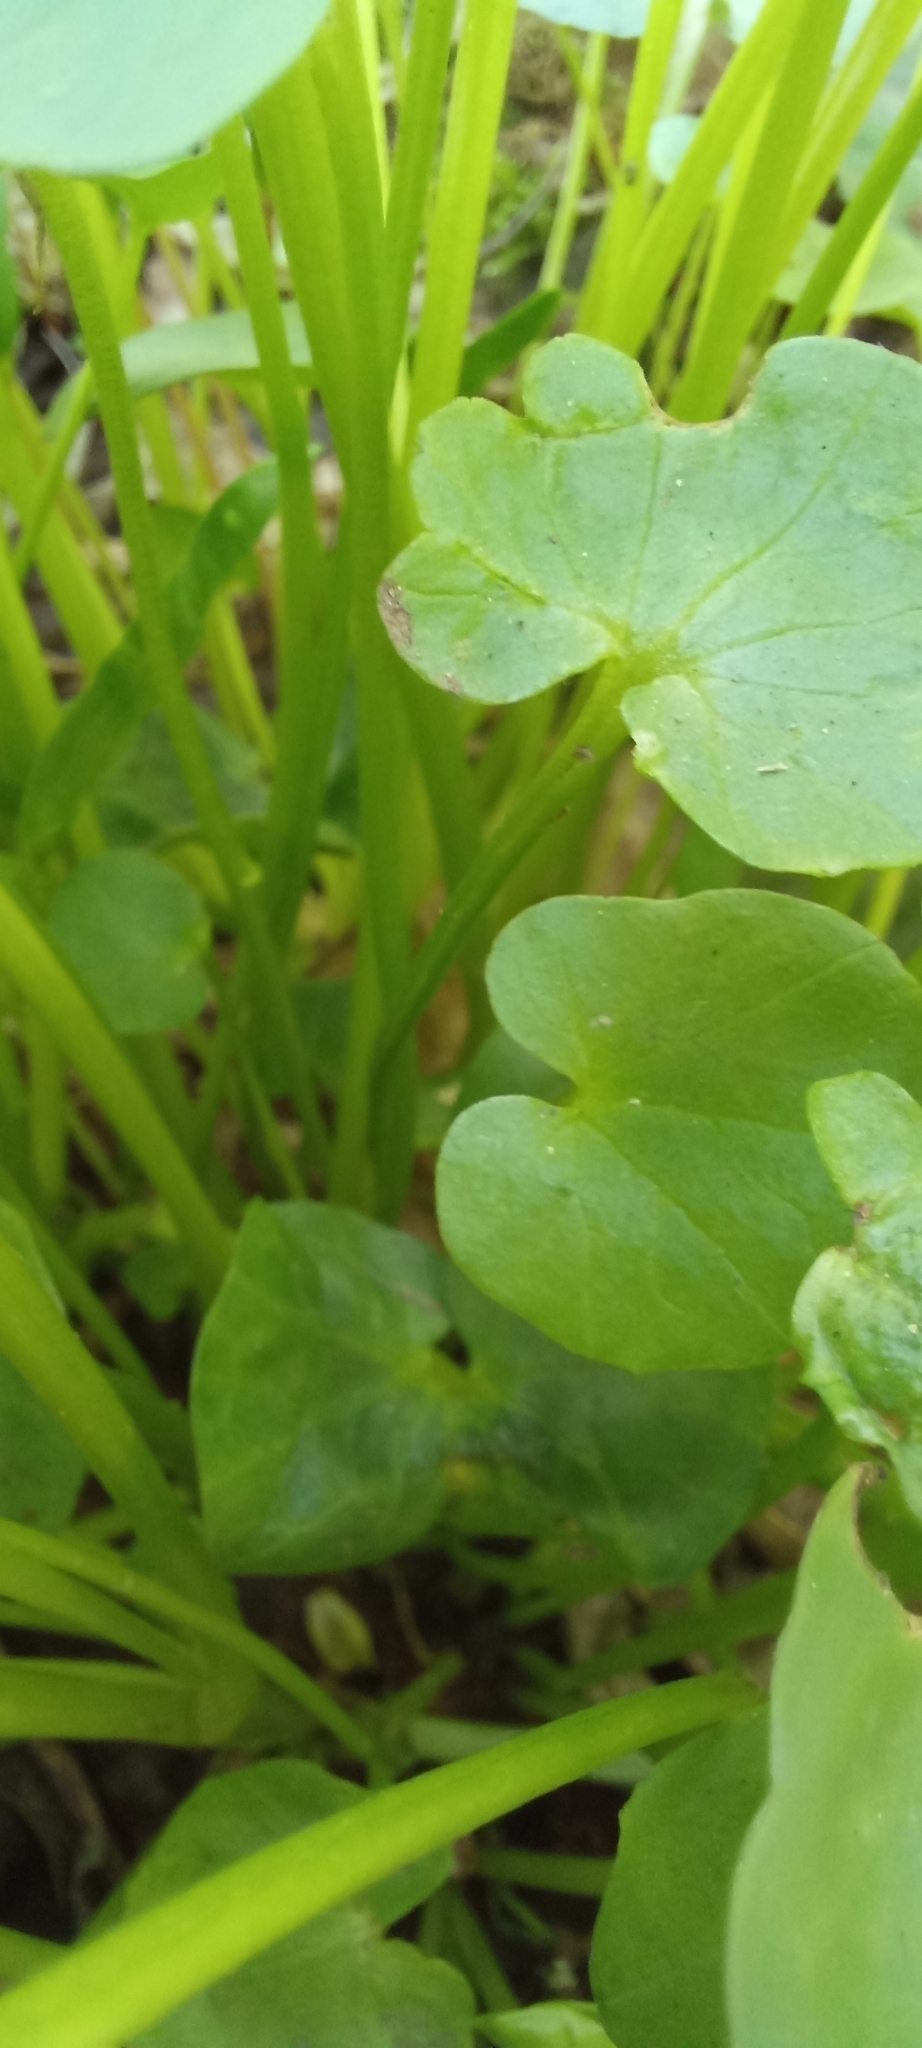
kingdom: Plantae
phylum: Tracheophyta
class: Magnoliopsida
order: Ranunculales
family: Ranunculaceae
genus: Ficaria
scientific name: Ficaria verna
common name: Lesser celandine
